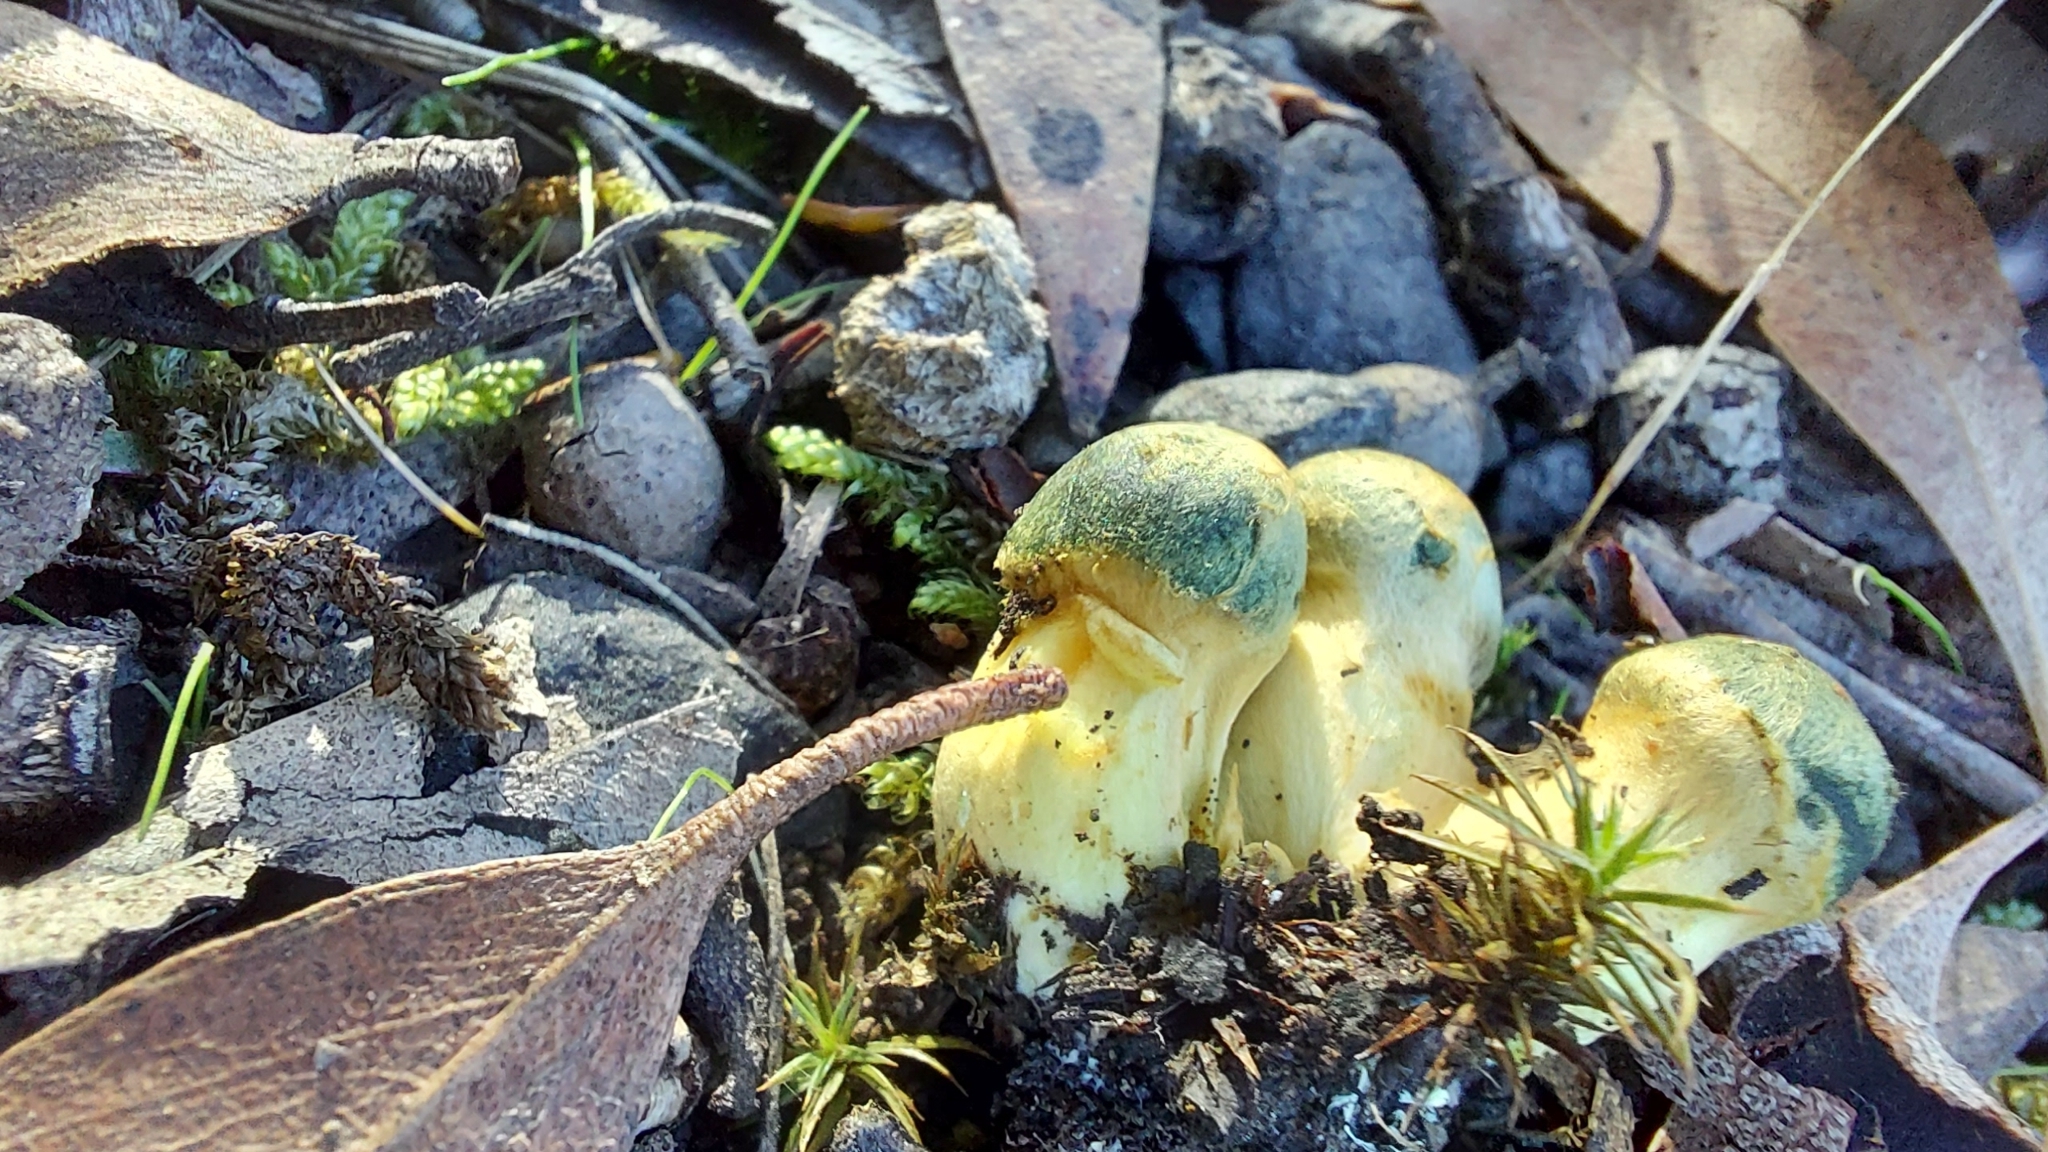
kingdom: Fungi
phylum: Basidiomycota
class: Agaricomycetes
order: Agaricales
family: Cortinariaceae
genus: Cortinarius
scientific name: Cortinarius austrovenetus
